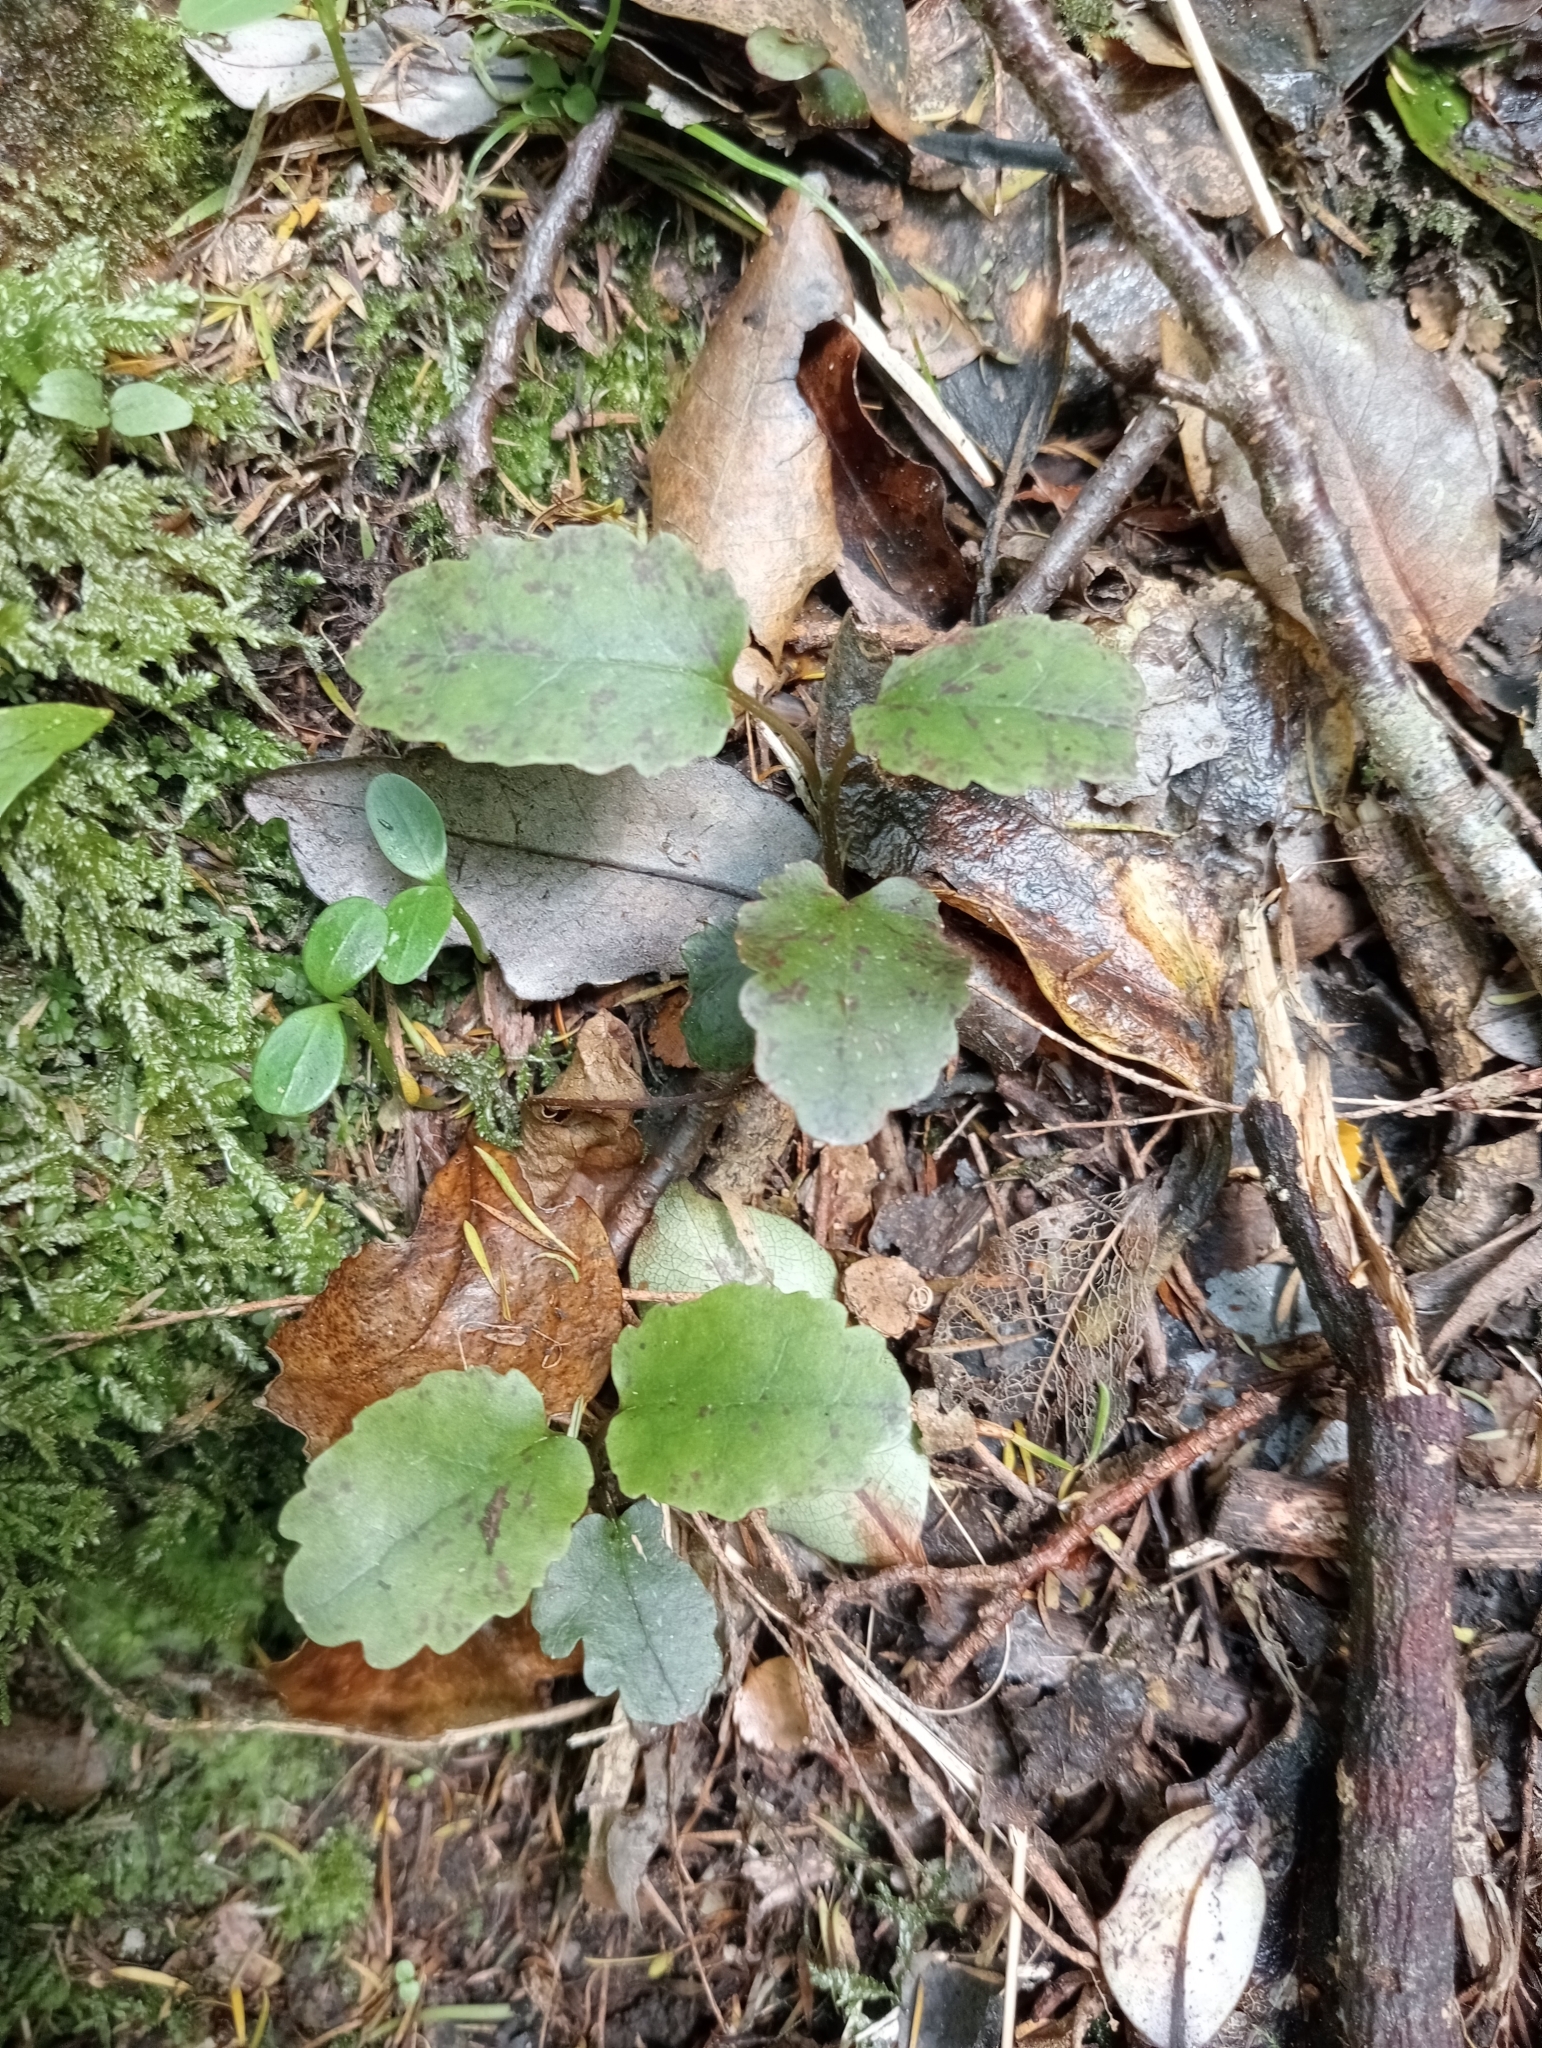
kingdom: Plantae
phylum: Tracheophyta
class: Magnoliopsida
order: Ranunculales
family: Ranunculaceae
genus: Clematis
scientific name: Clematis paniculata
